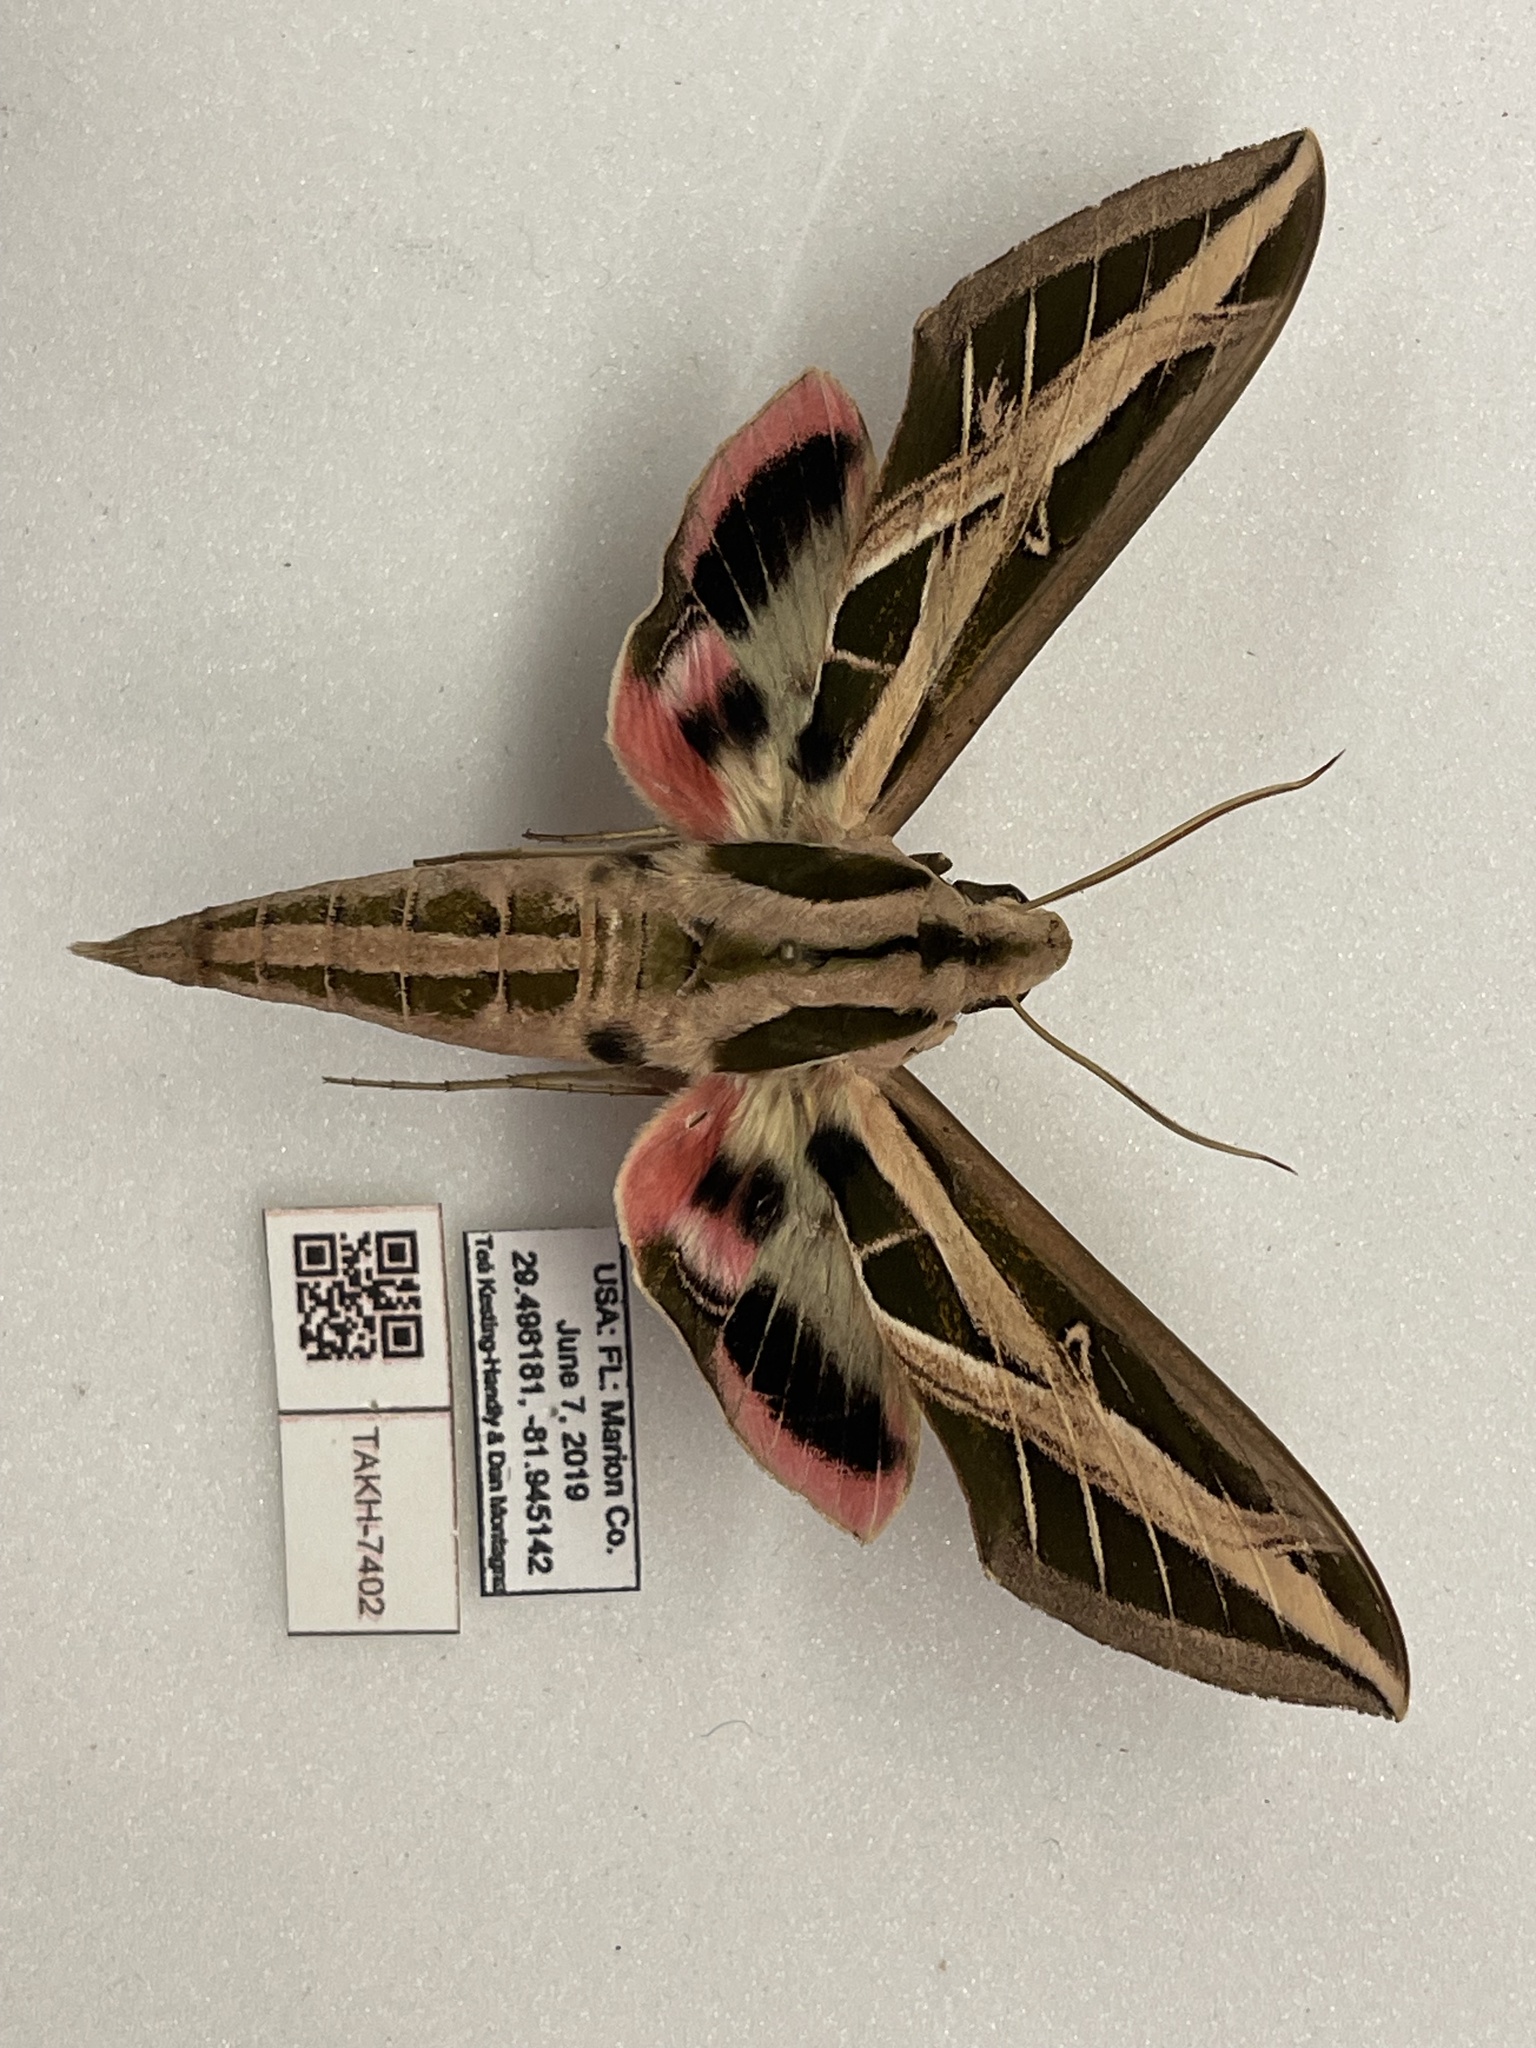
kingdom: Animalia
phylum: Arthropoda
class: Insecta
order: Lepidoptera
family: Sphingidae
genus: Eumorpha
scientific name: Eumorpha fasciatus
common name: Banded sphinx
